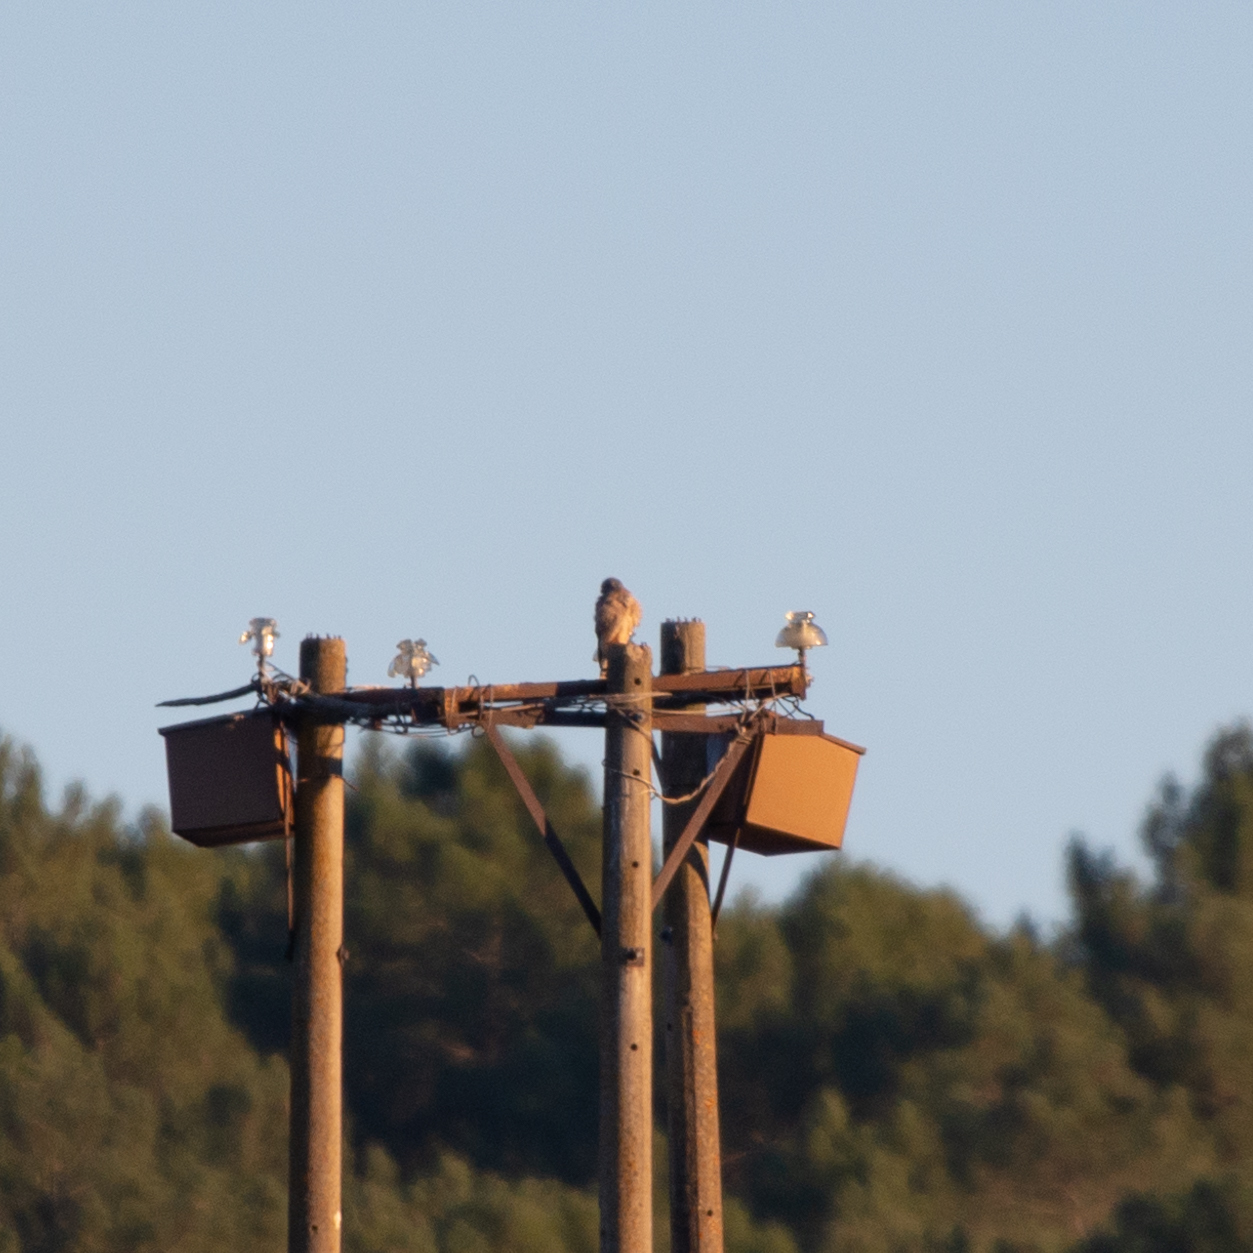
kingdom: Animalia
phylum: Chordata
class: Aves
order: Falconiformes
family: Falconidae
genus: Falco
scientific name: Falco tinnunculus
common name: Common kestrel
